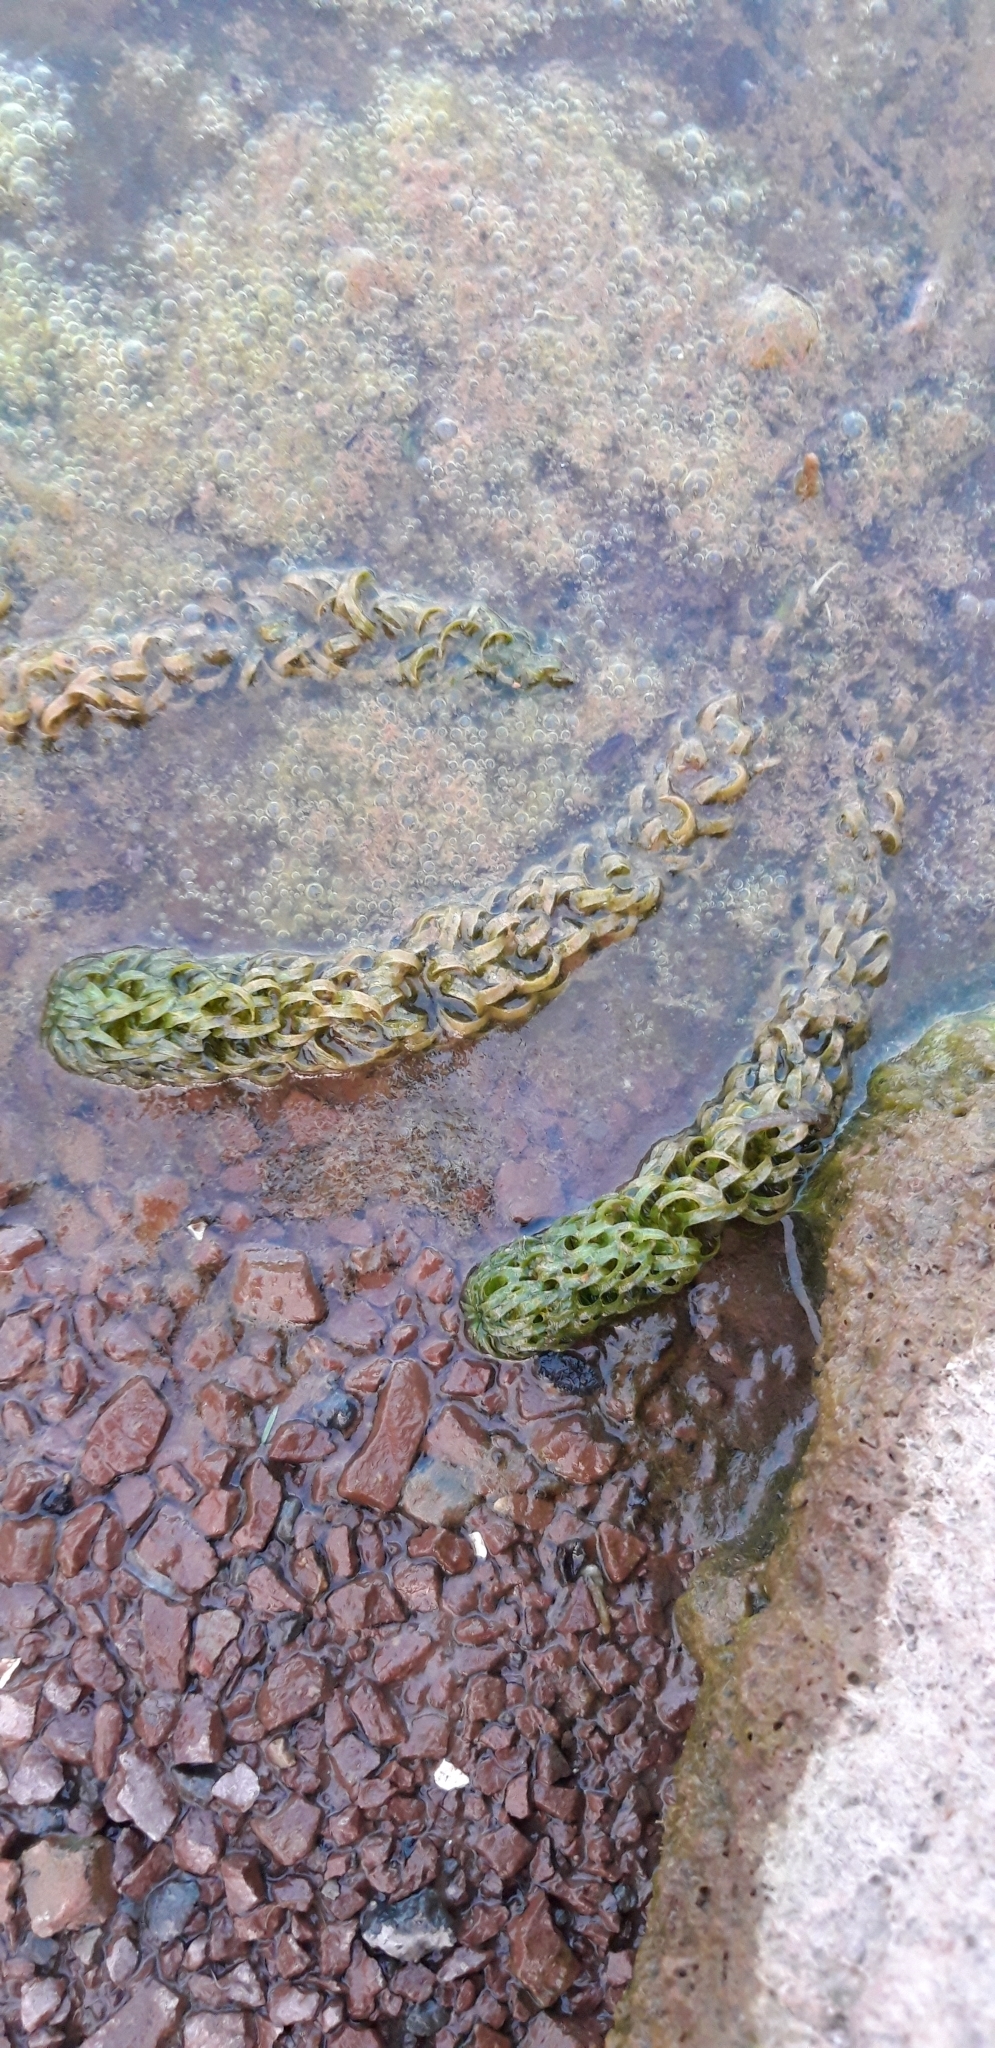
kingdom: Plantae
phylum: Tracheophyta
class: Liliopsida
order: Alismatales
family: Hydrocharitaceae
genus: Lagarosiphon
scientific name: Lagarosiphon major
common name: Curly waterweed
